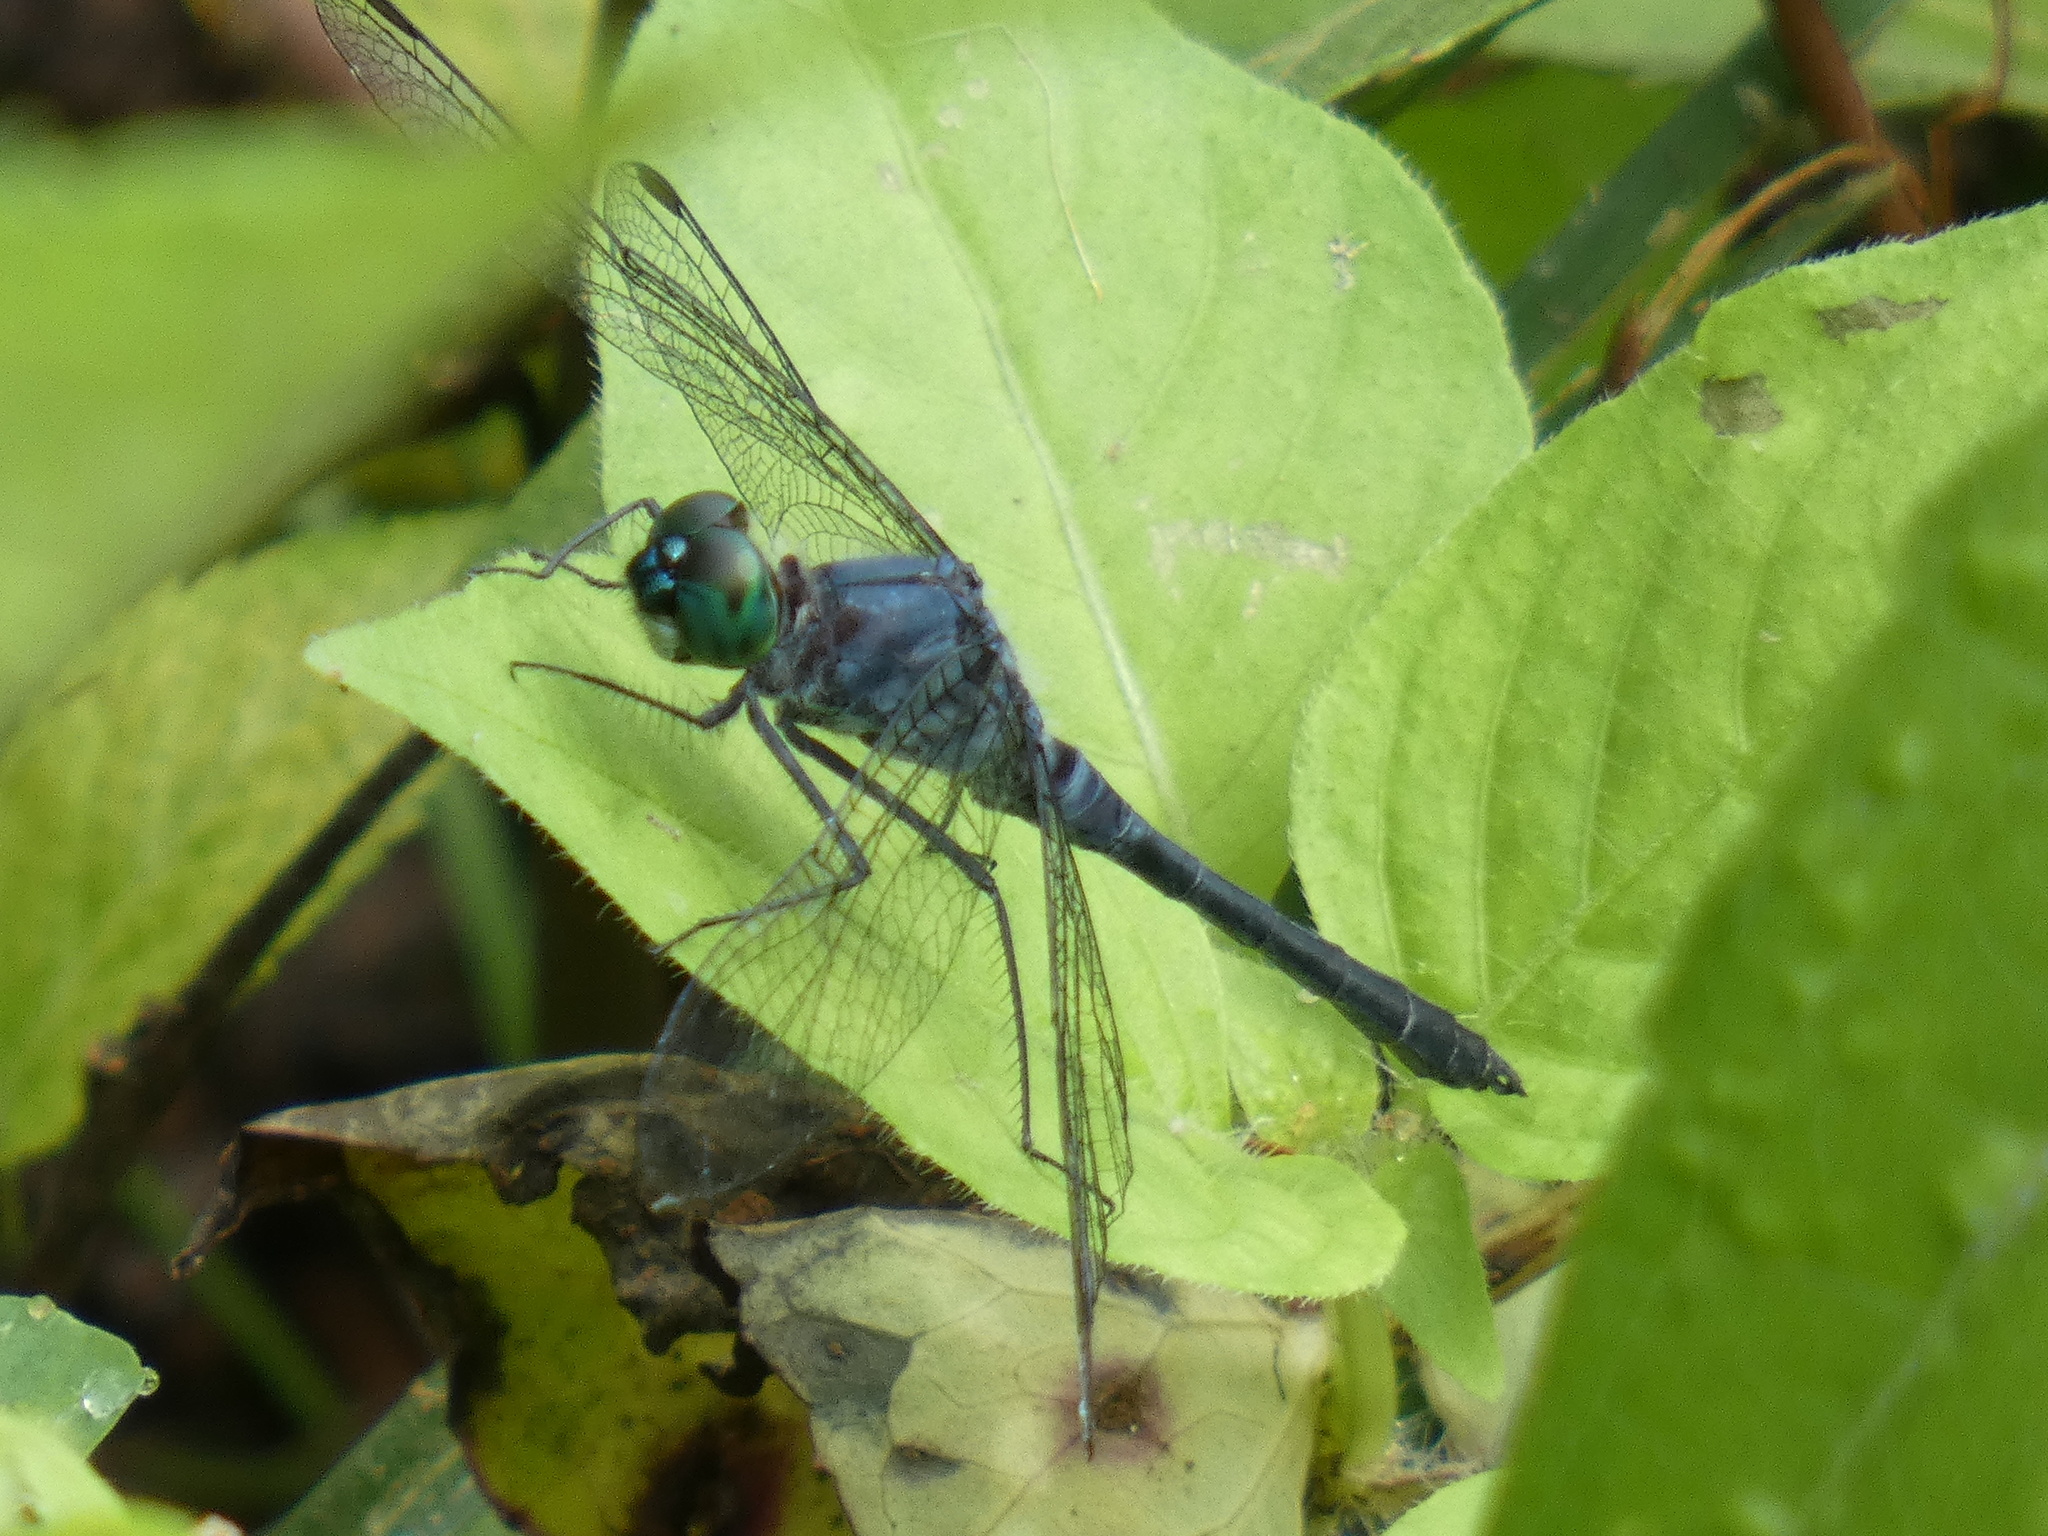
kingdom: Animalia
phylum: Arthropoda
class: Insecta
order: Odonata
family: Libellulidae
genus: Oligoclada
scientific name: Oligoclada laetitia
